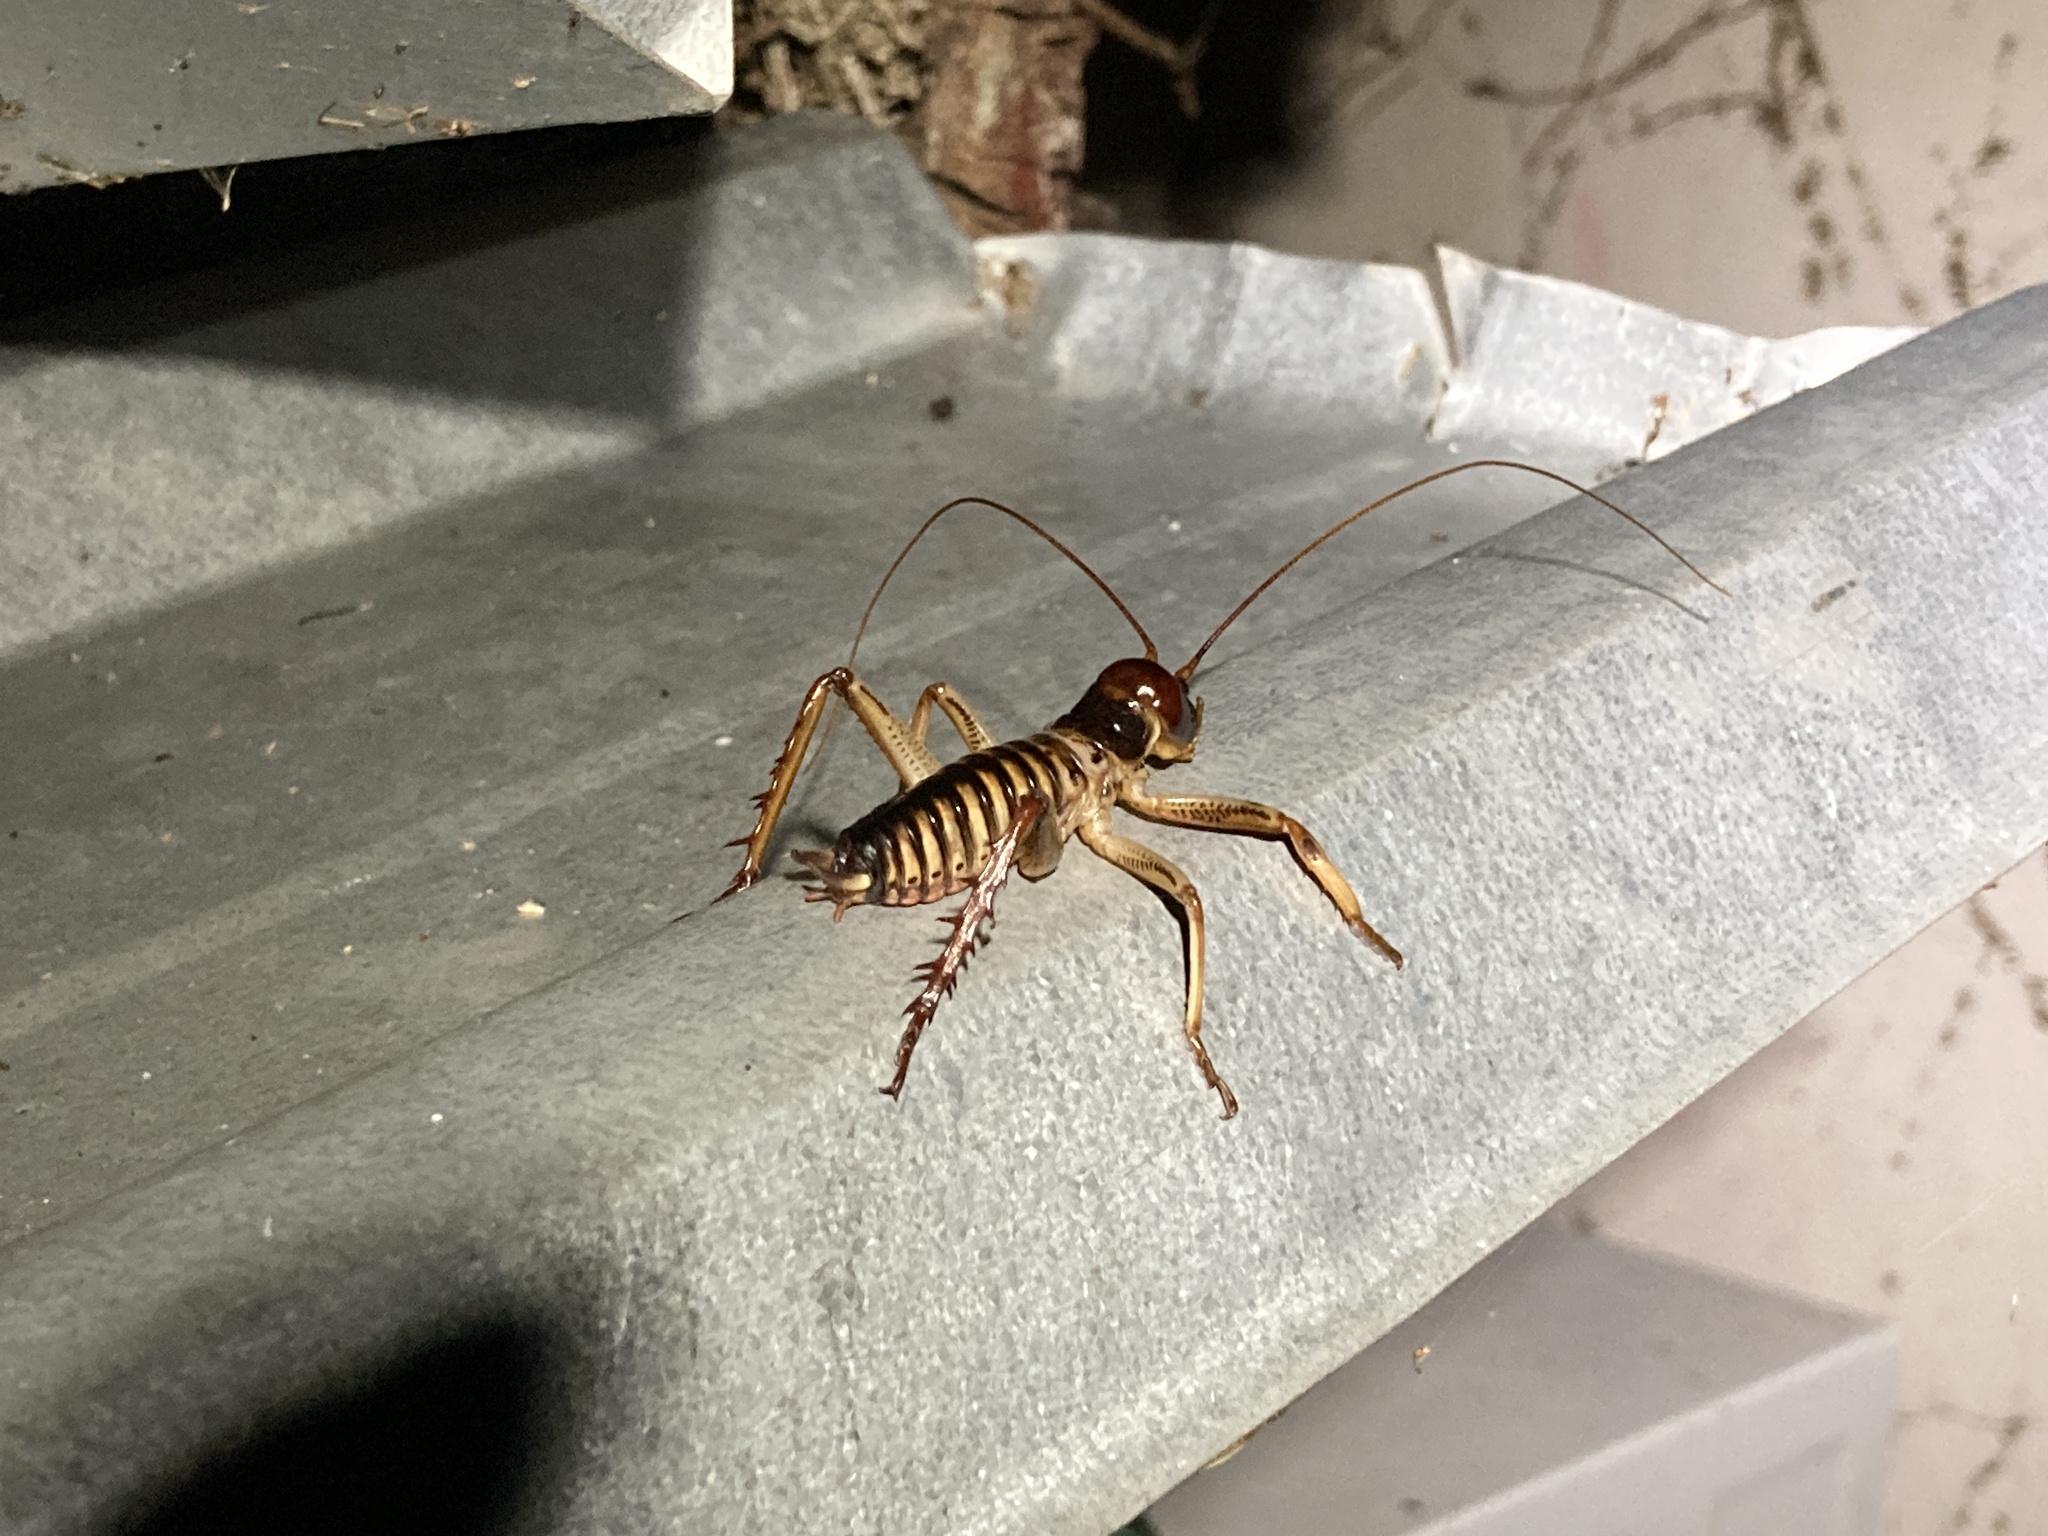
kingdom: Animalia
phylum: Arthropoda
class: Insecta
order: Orthoptera
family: Anostostomatidae
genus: Hemideina
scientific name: Hemideina crassidens
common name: Wellington tree weta
